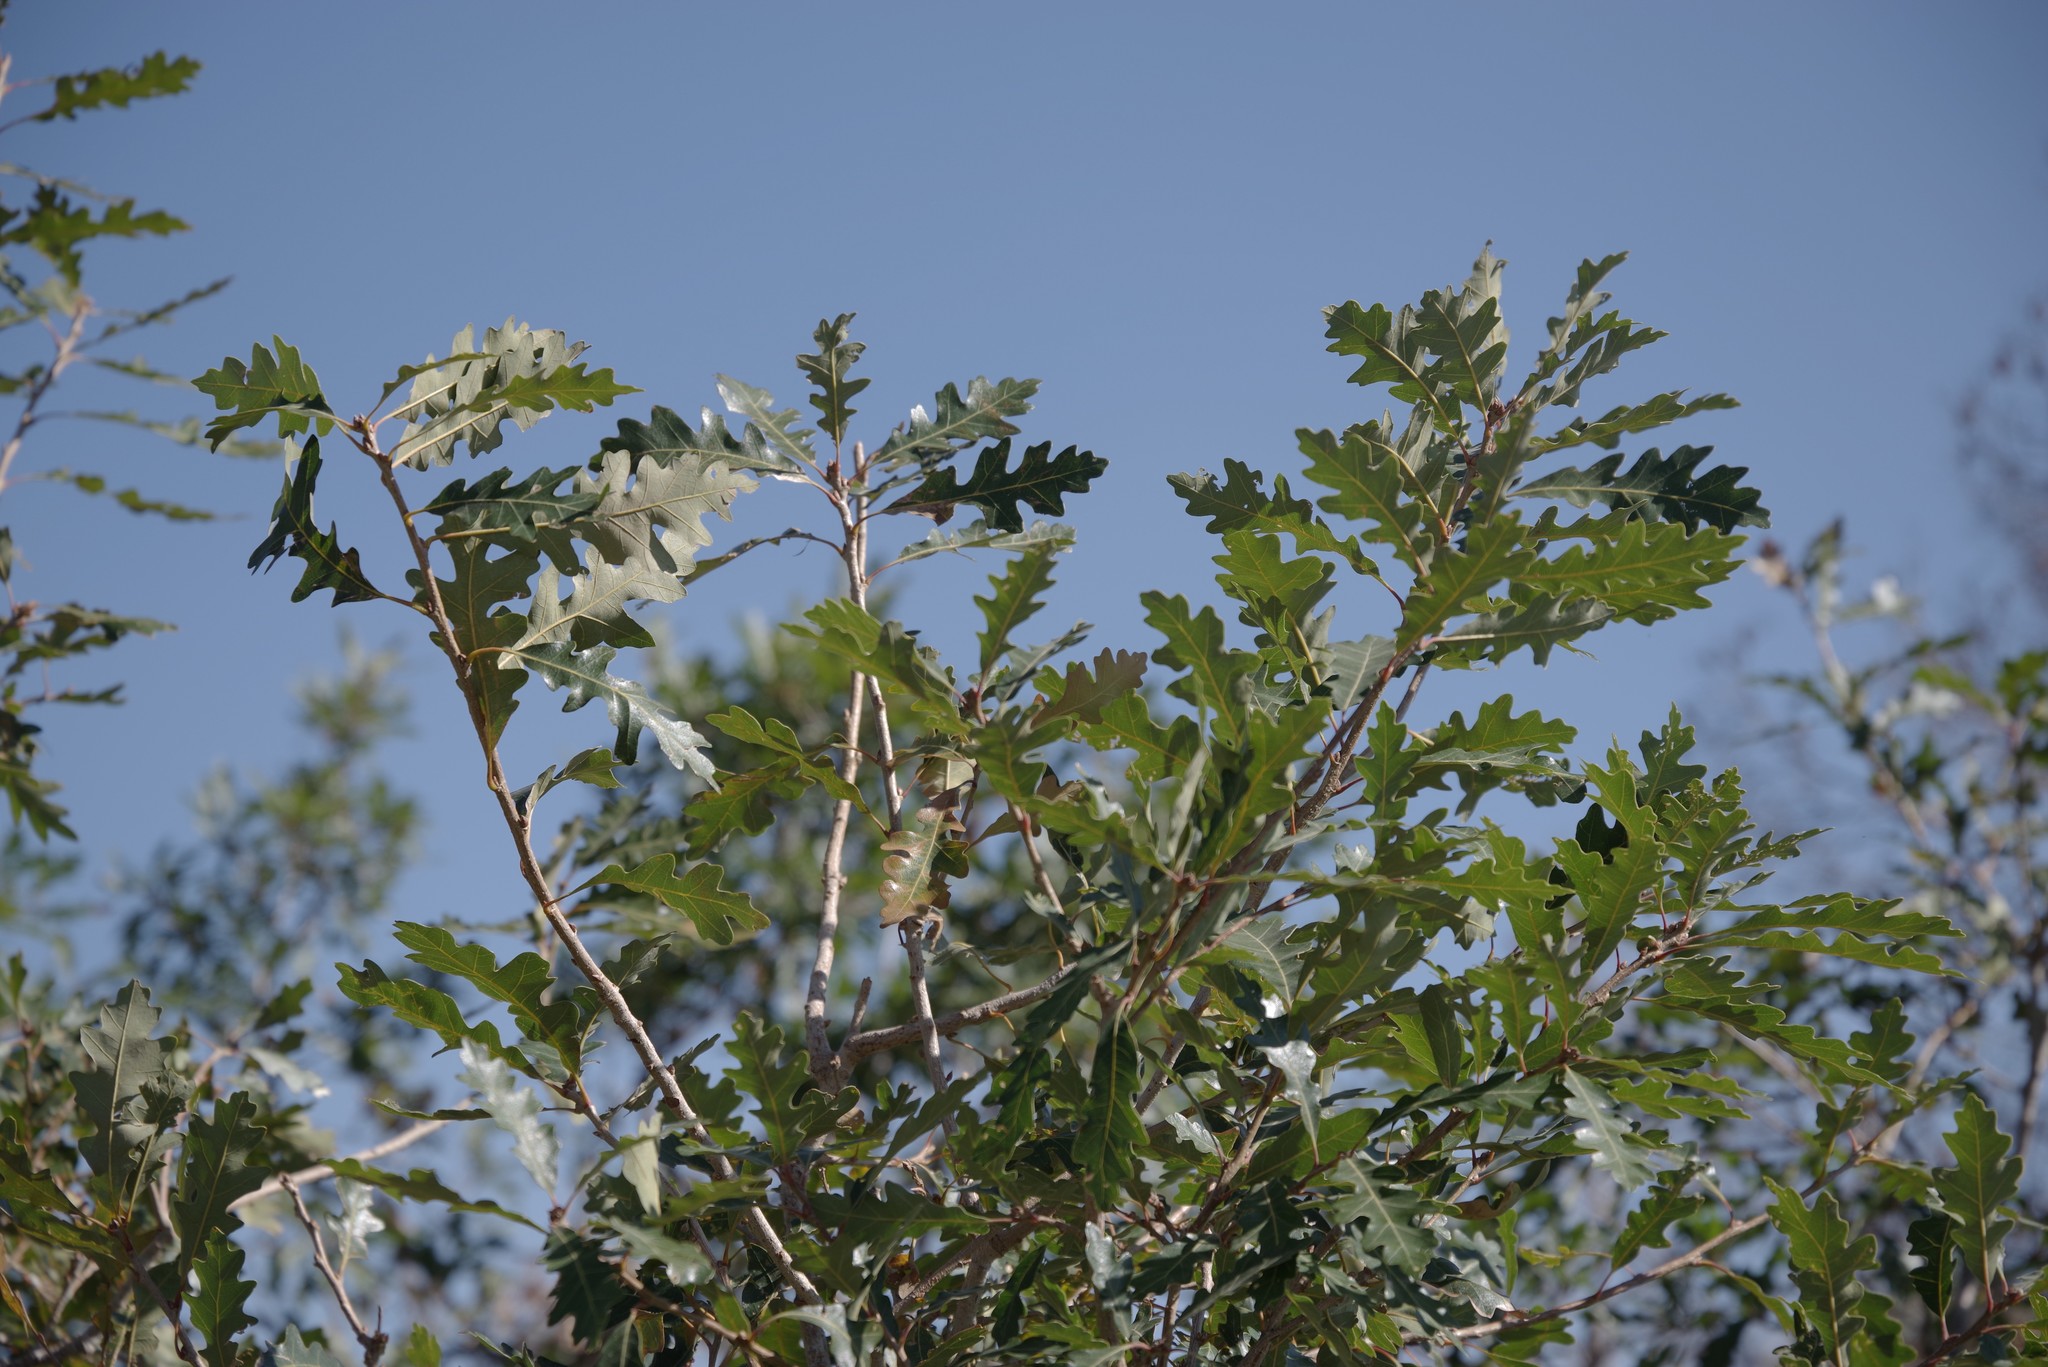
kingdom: Plantae
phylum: Tracheophyta
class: Magnoliopsida
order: Fagales
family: Fagaceae
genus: Quercus
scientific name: Quercus gambelii
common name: Gambel oak
